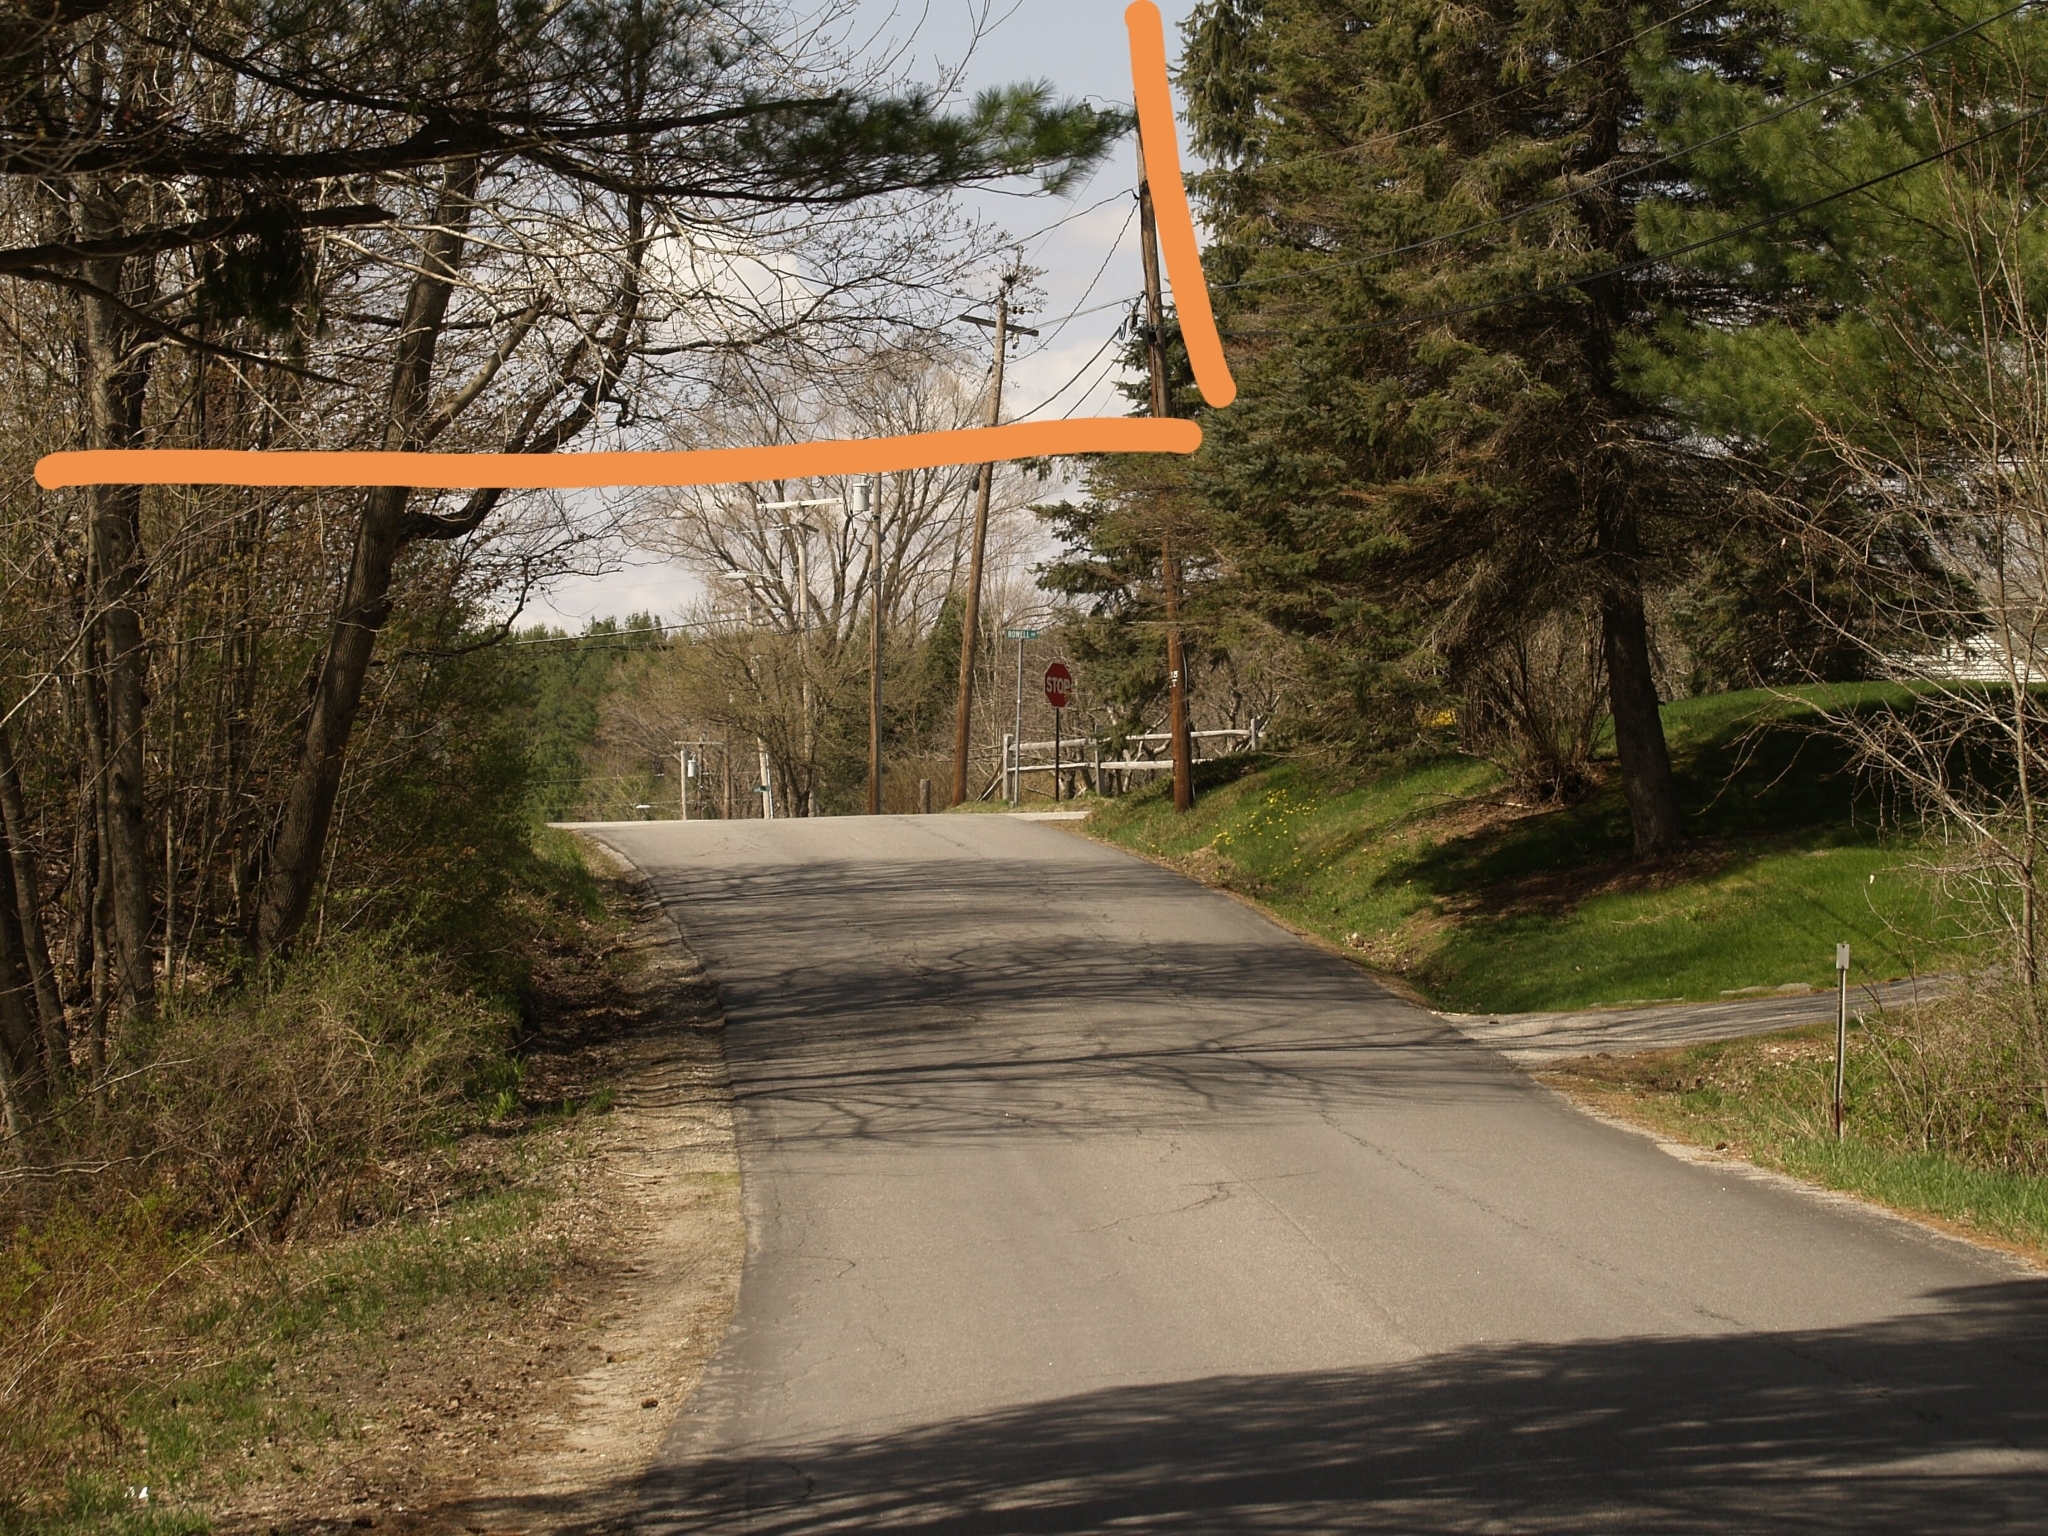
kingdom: Plantae
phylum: Tracheophyta
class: Pinopsida
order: Pinales
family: Pinaceae
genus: Pinus
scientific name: Pinus strobus
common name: Weymouth pine
